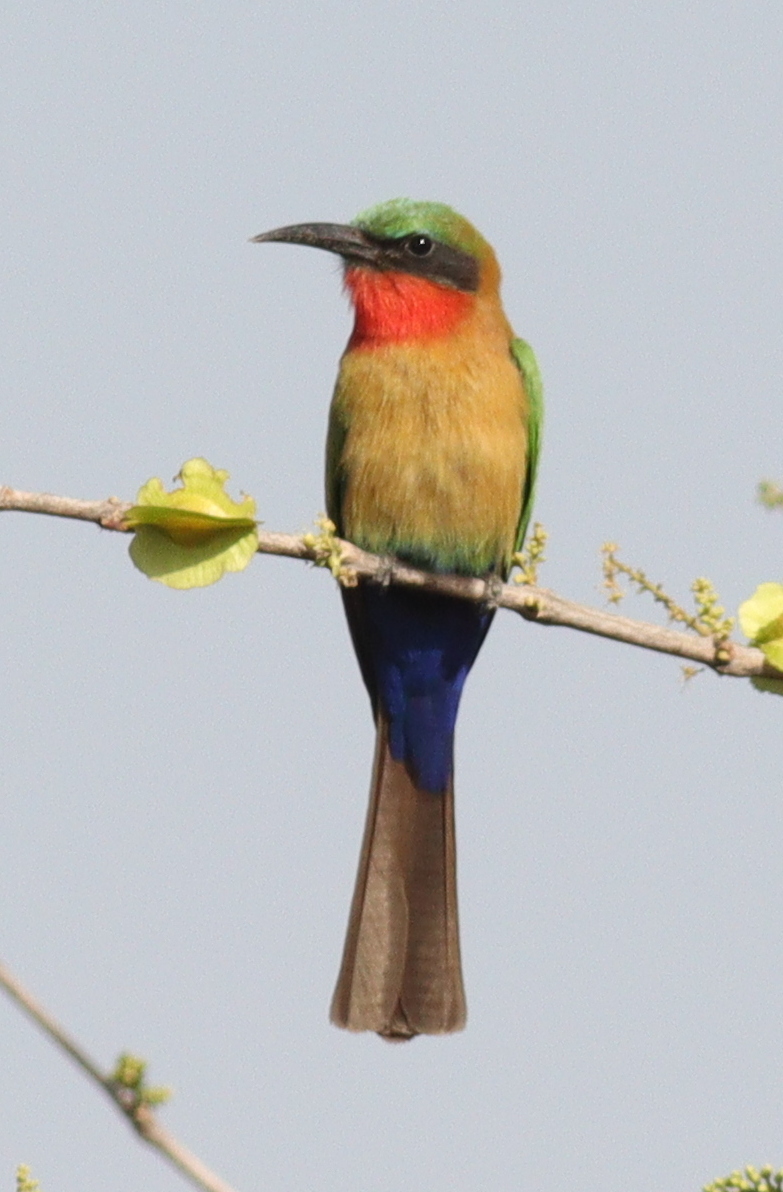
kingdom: Animalia
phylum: Chordata
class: Aves
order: Coraciiformes
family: Meropidae
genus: Merops
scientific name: Merops bulocki
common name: Red-throated bee-eater
